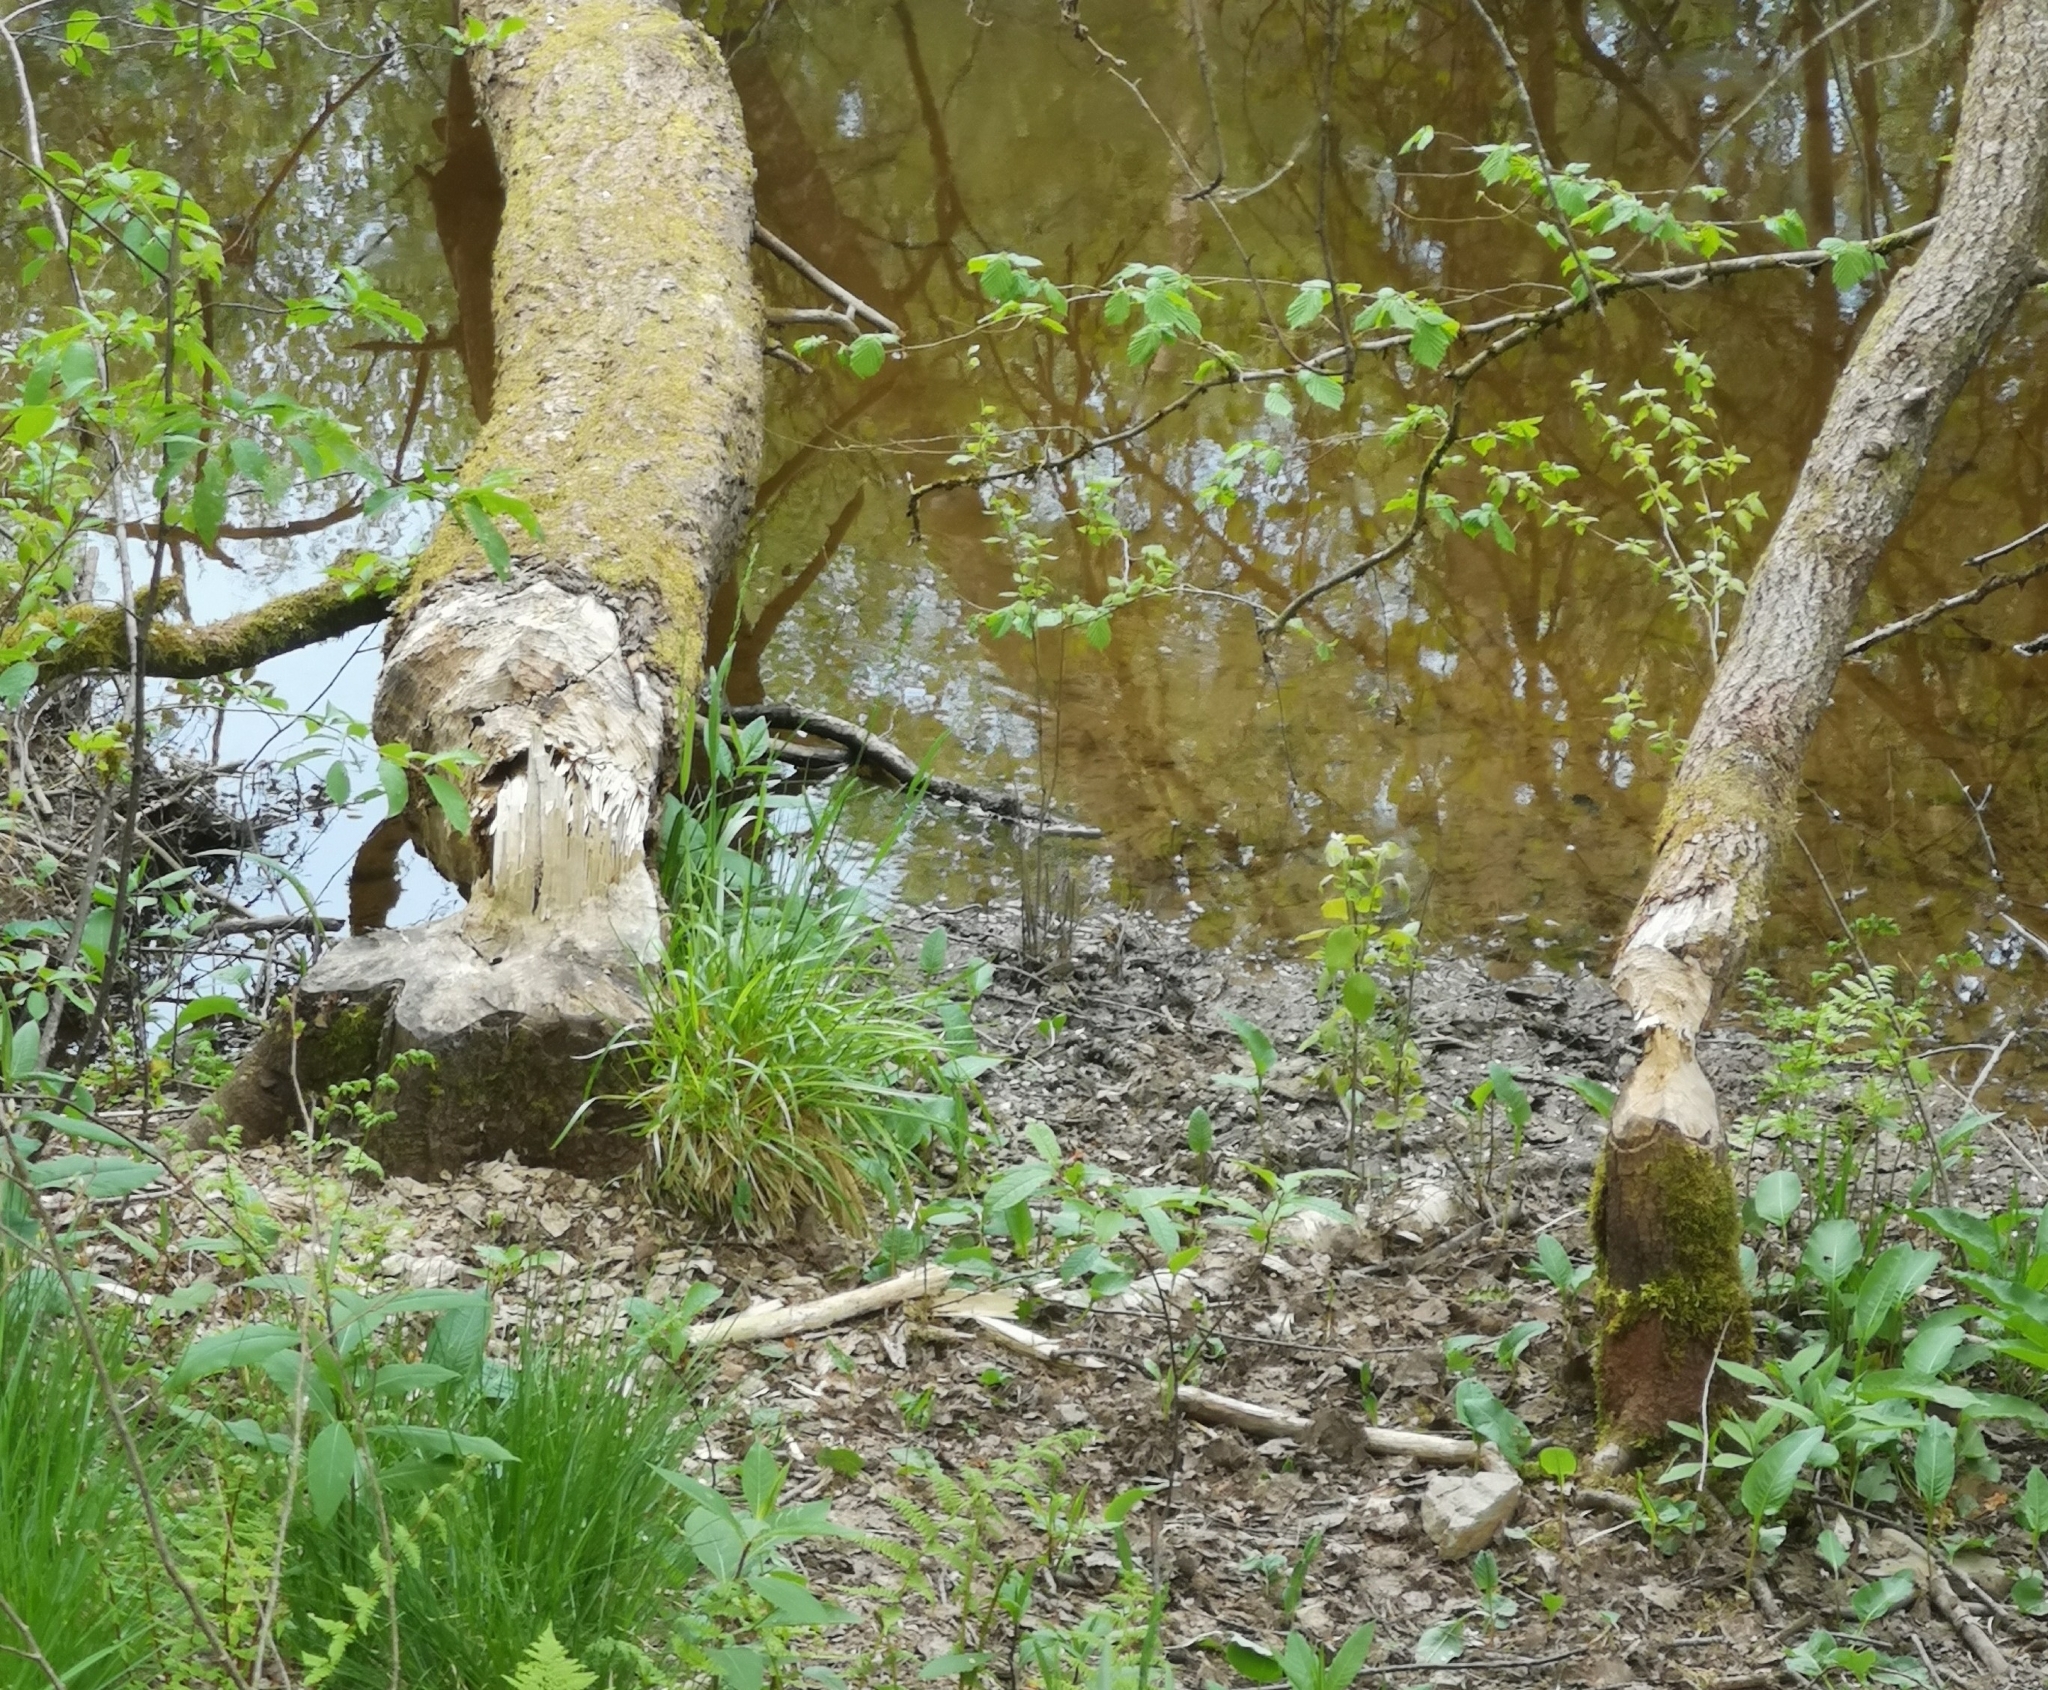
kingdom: Animalia
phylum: Chordata
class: Mammalia
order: Rodentia
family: Castoridae
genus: Castor
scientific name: Castor fiber
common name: Eurasian beaver
